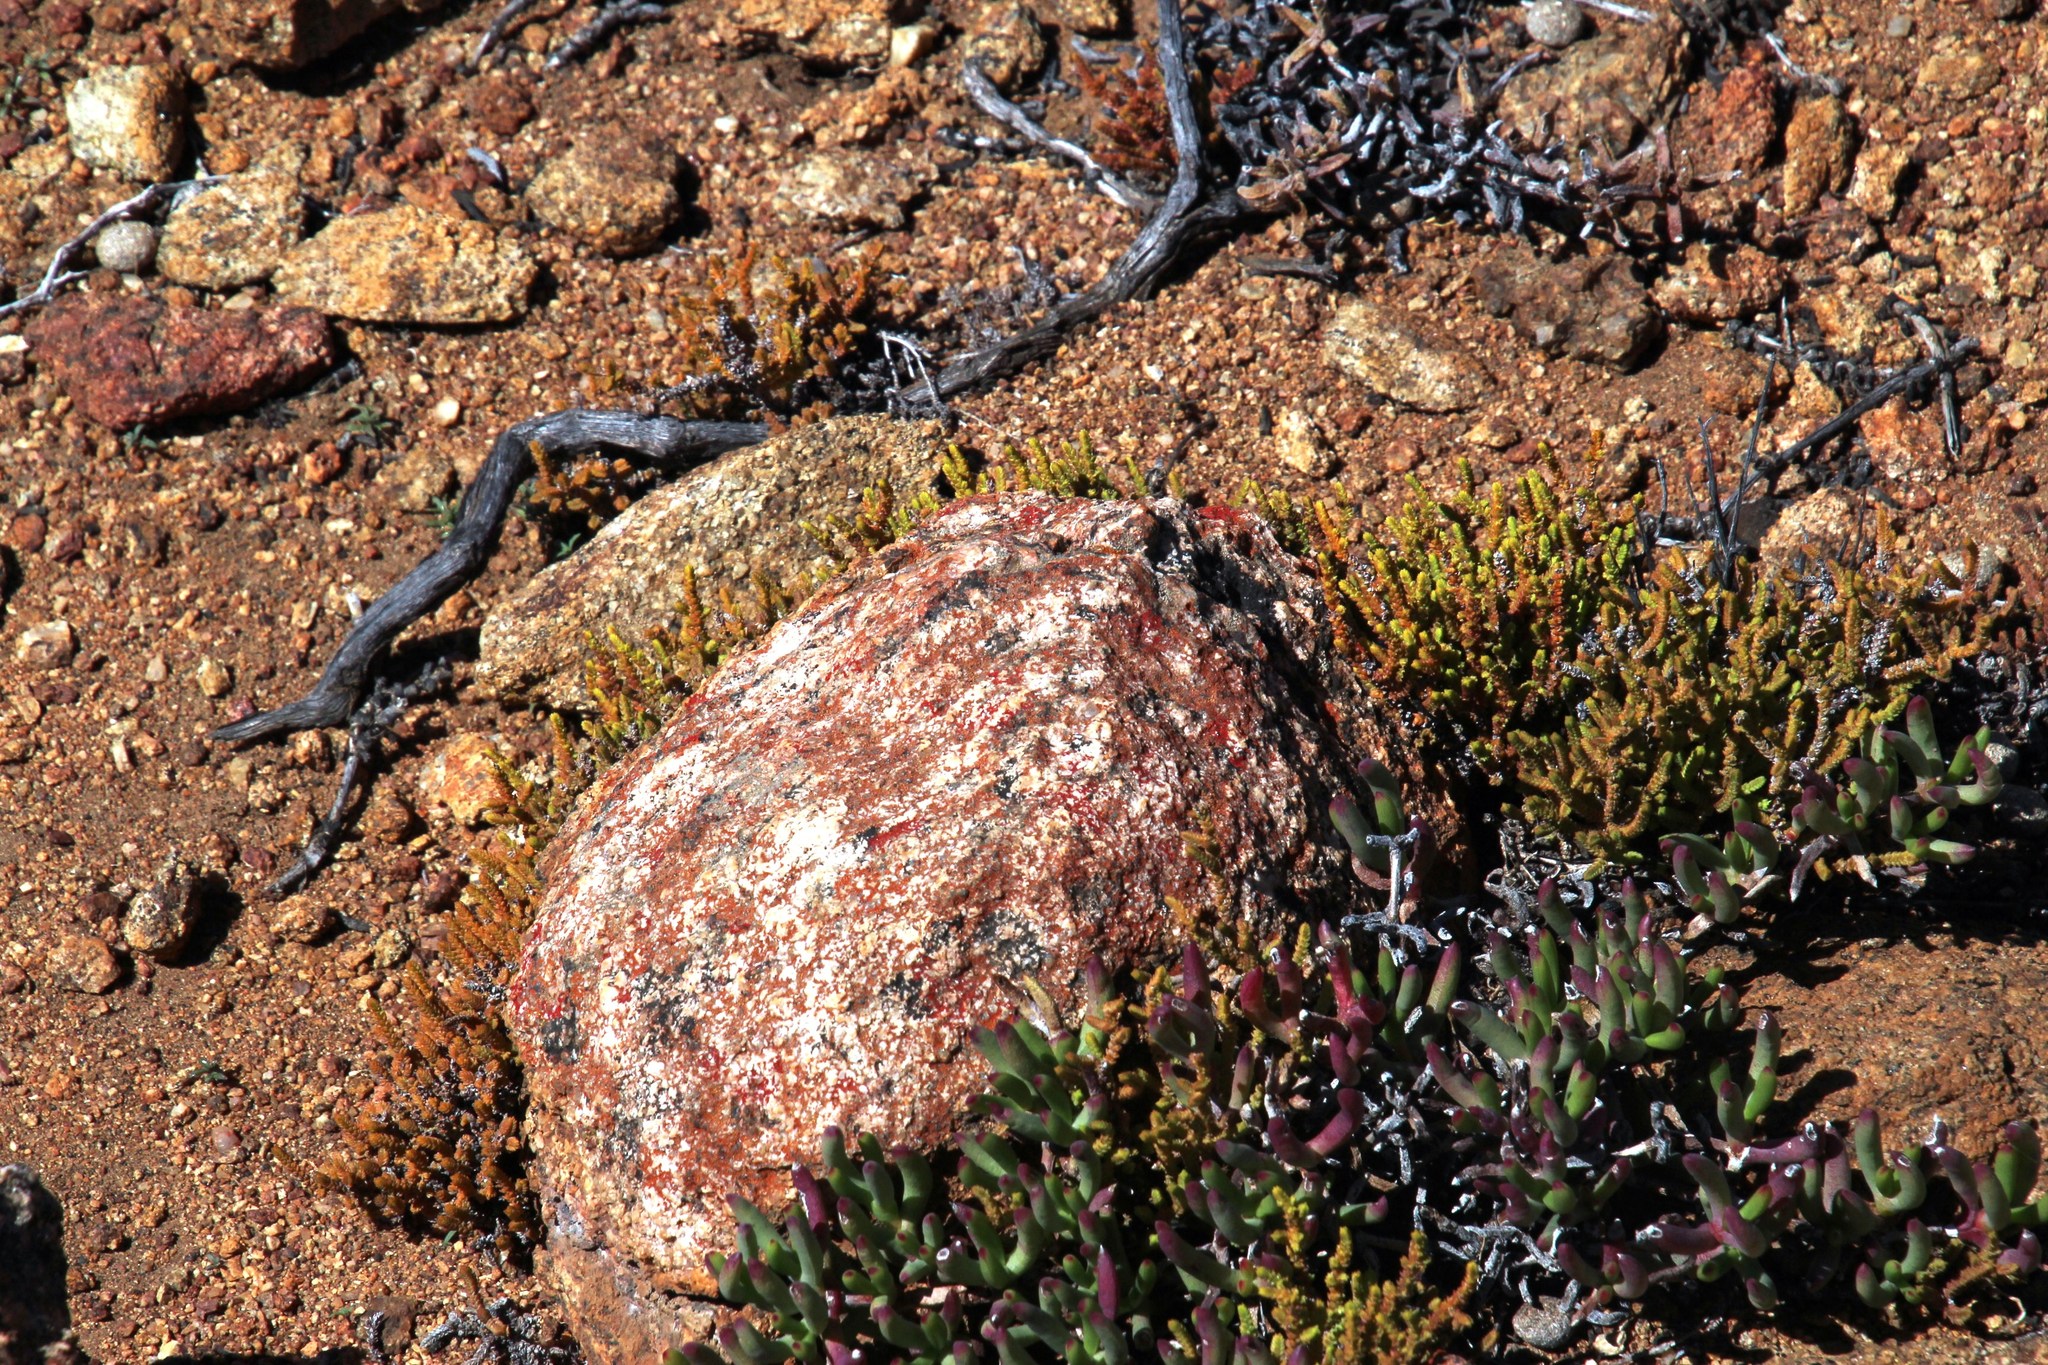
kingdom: Plantae
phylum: Tracheophyta
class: Magnoliopsida
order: Saxifragales
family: Crassulaceae
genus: Crassula
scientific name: Crassula muscosa
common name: Toy-cypress
